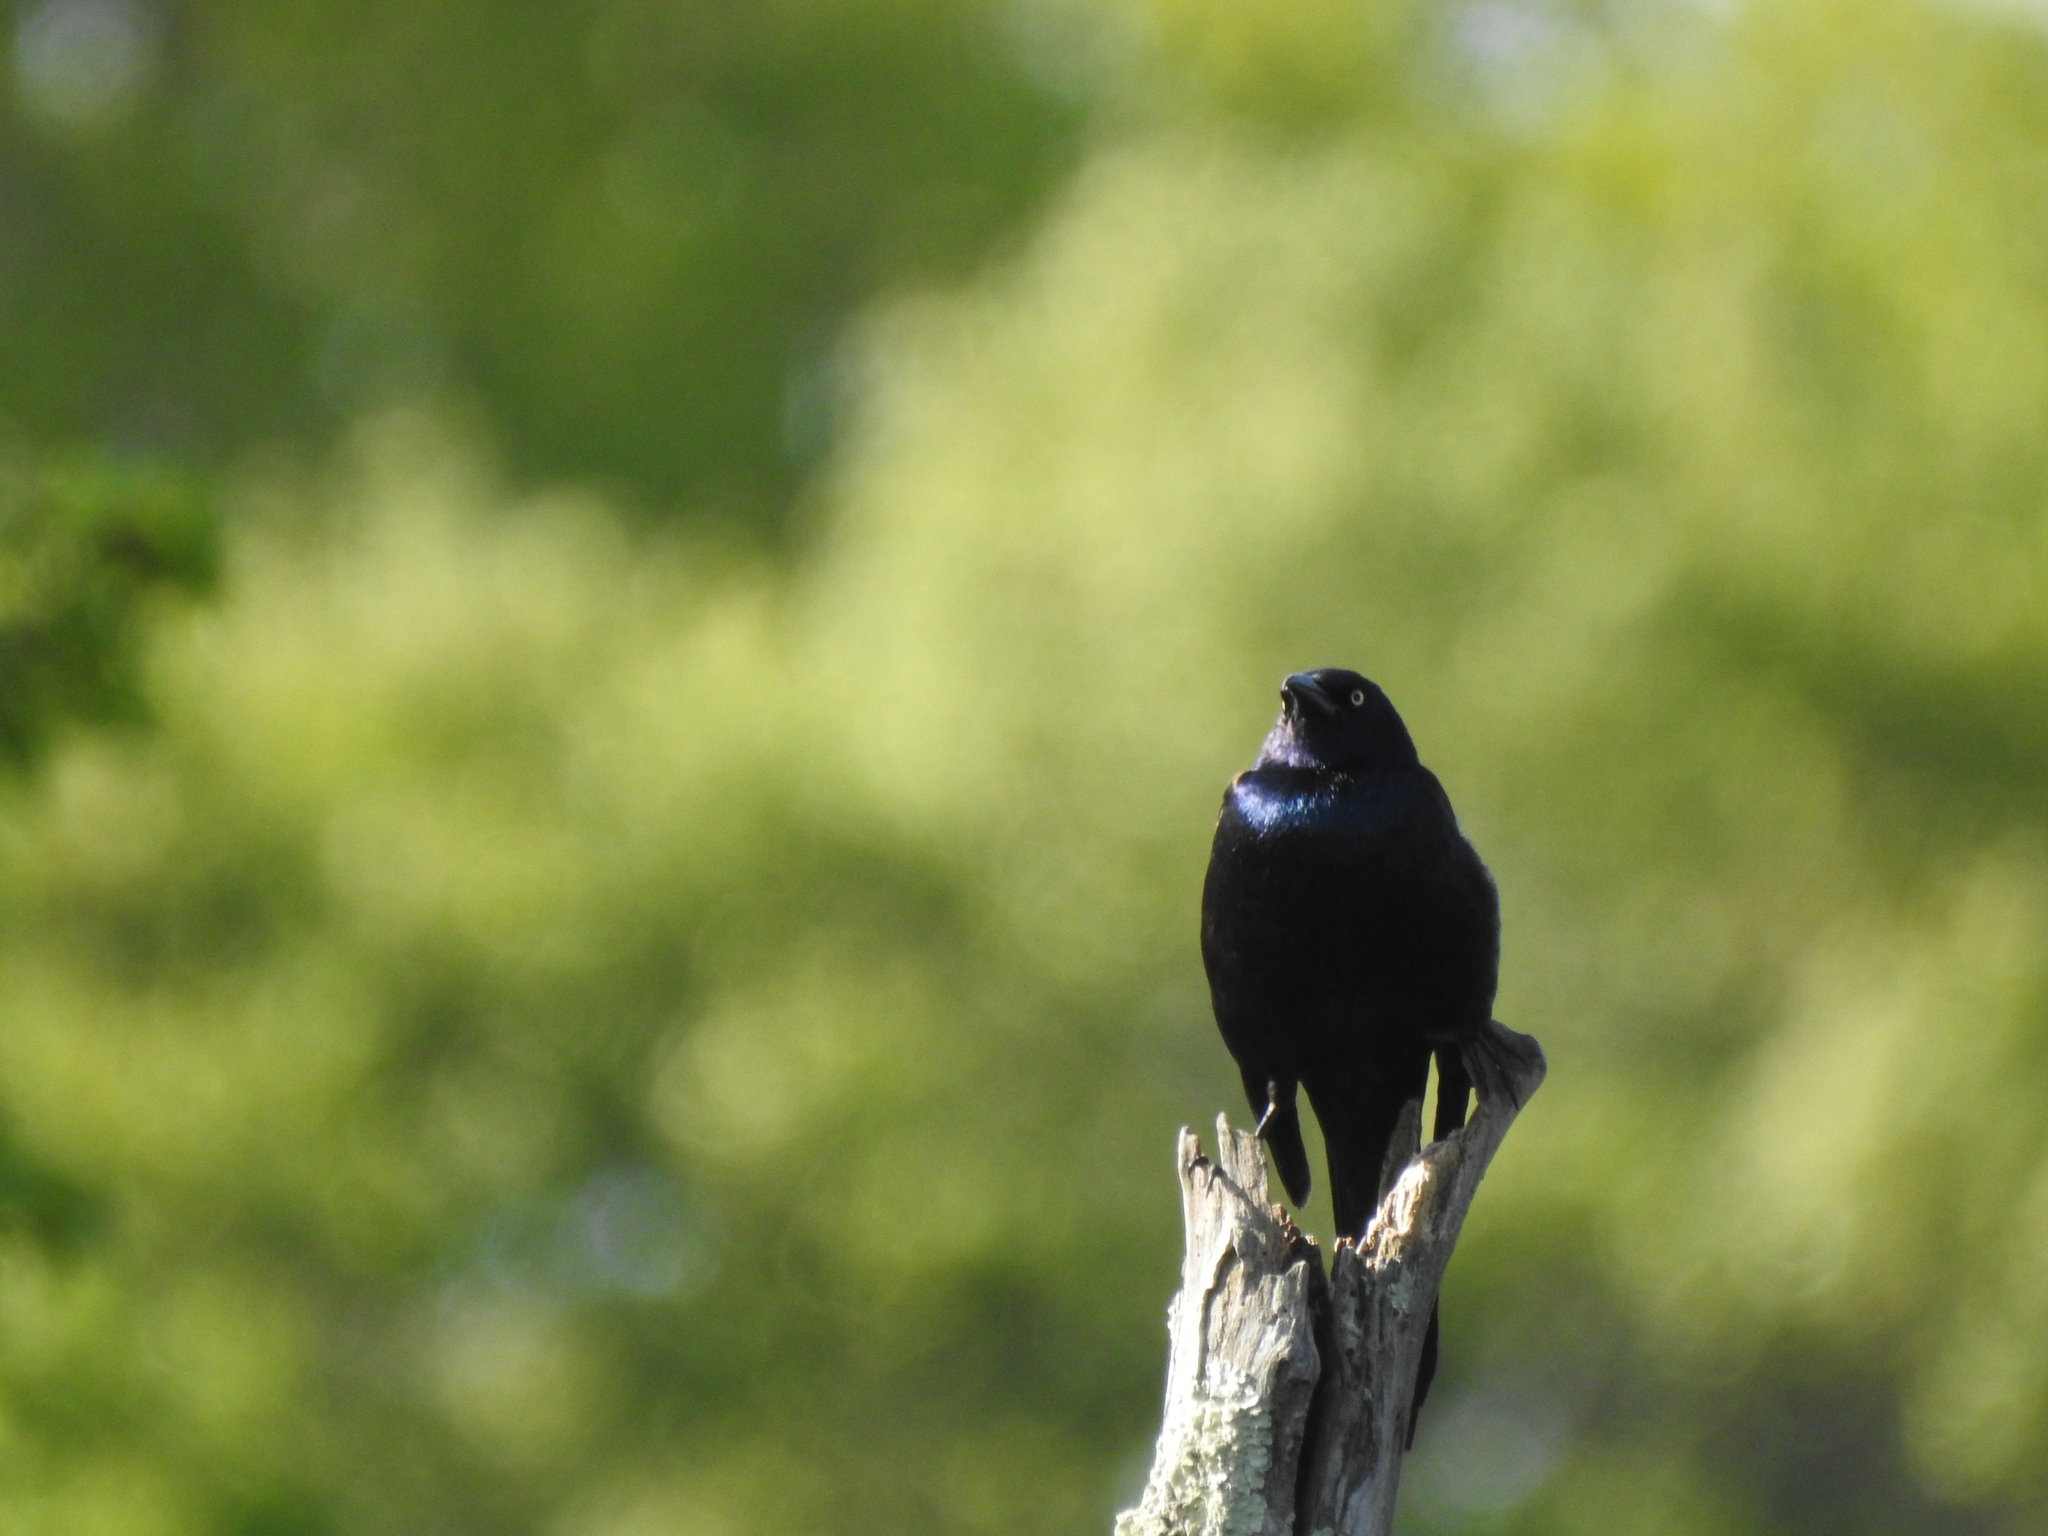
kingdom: Animalia
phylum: Chordata
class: Aves
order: Passeriformes
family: Icteridae
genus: Quiscalus
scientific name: Quiscalus quiscula
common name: Common grackle
